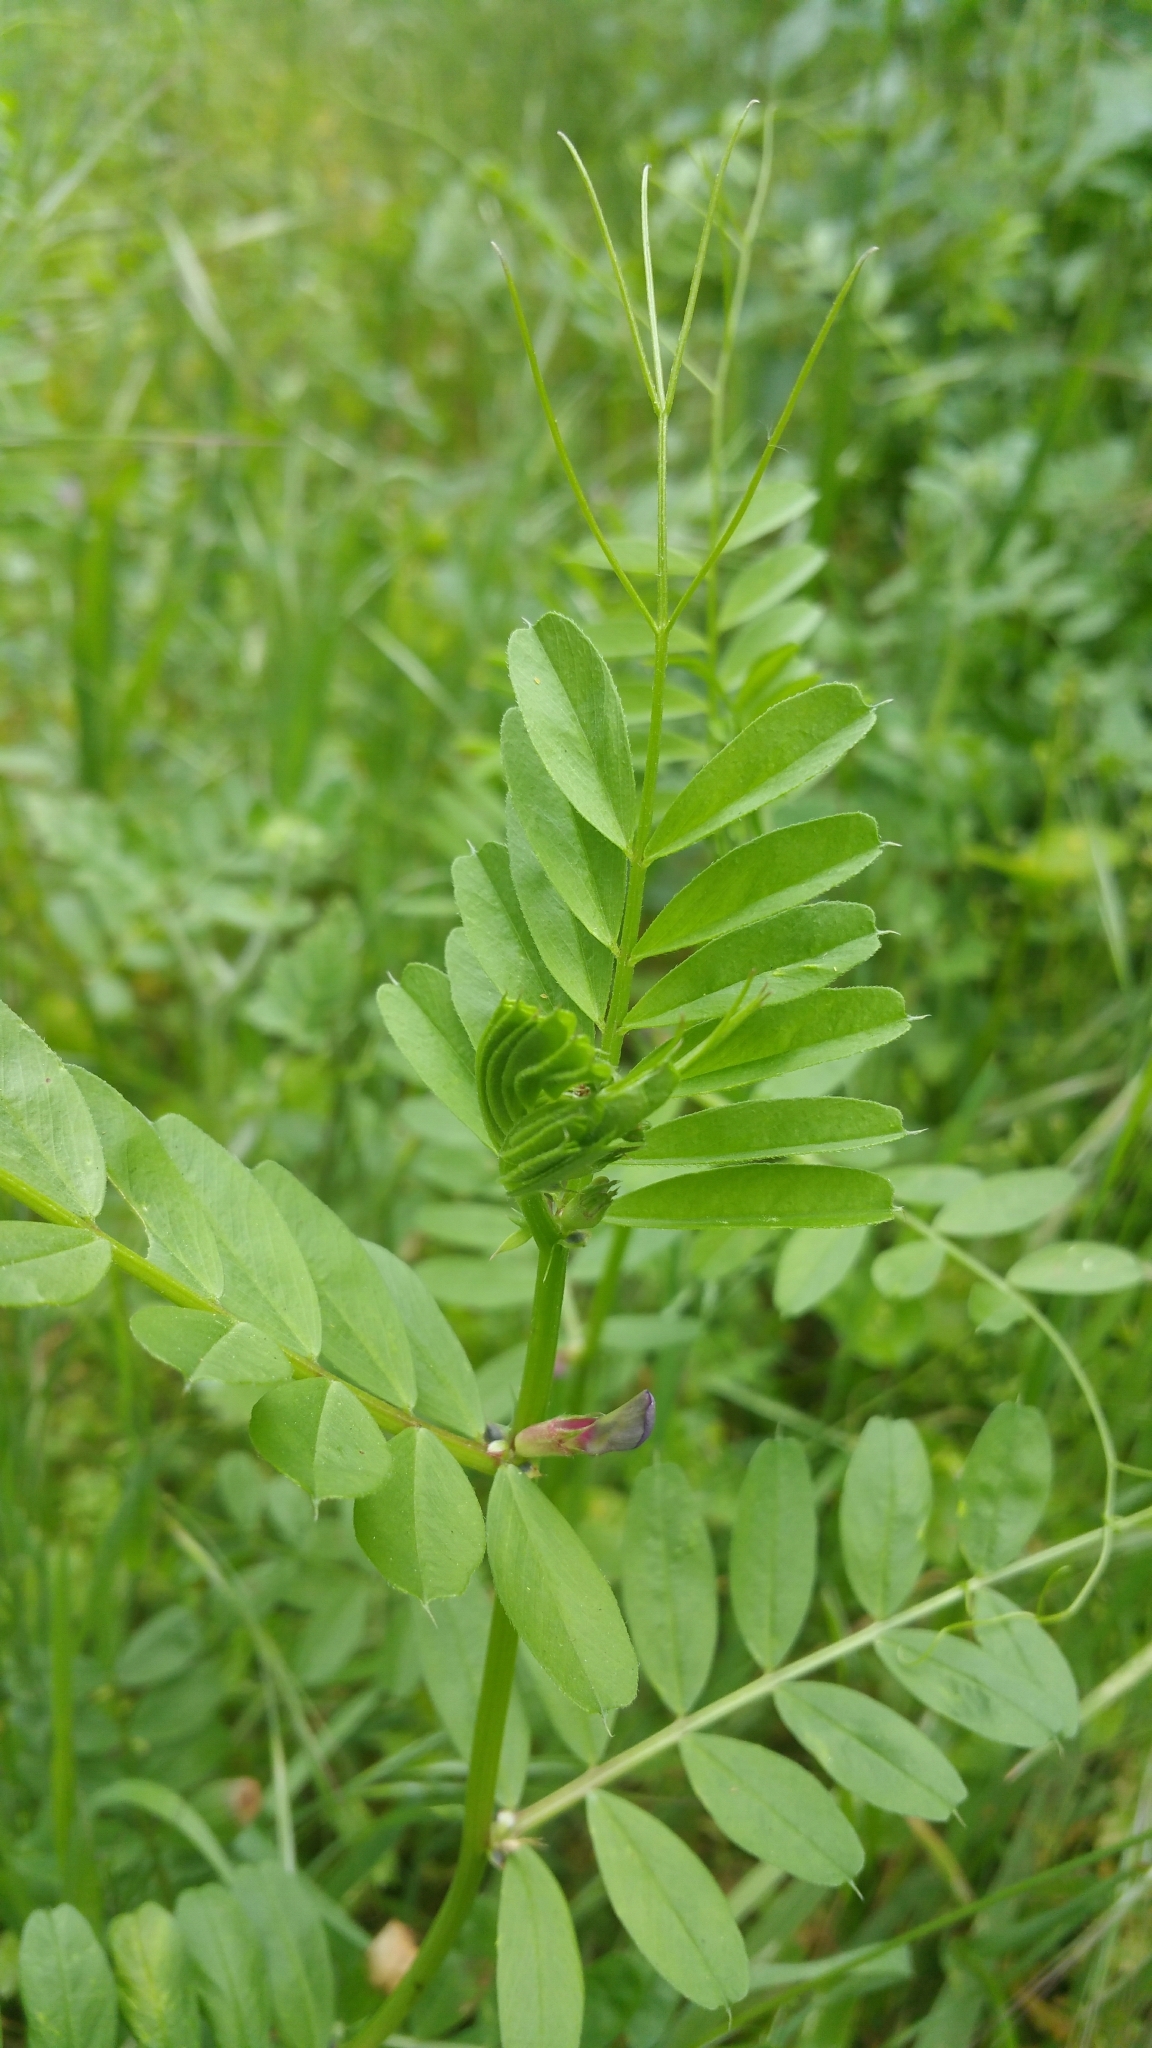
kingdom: Plantae
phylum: Tracheophyta
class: Magnoliopsida
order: Fabales
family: Fabaceae
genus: Vicia
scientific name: Vicia sativa
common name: Garden vetch
